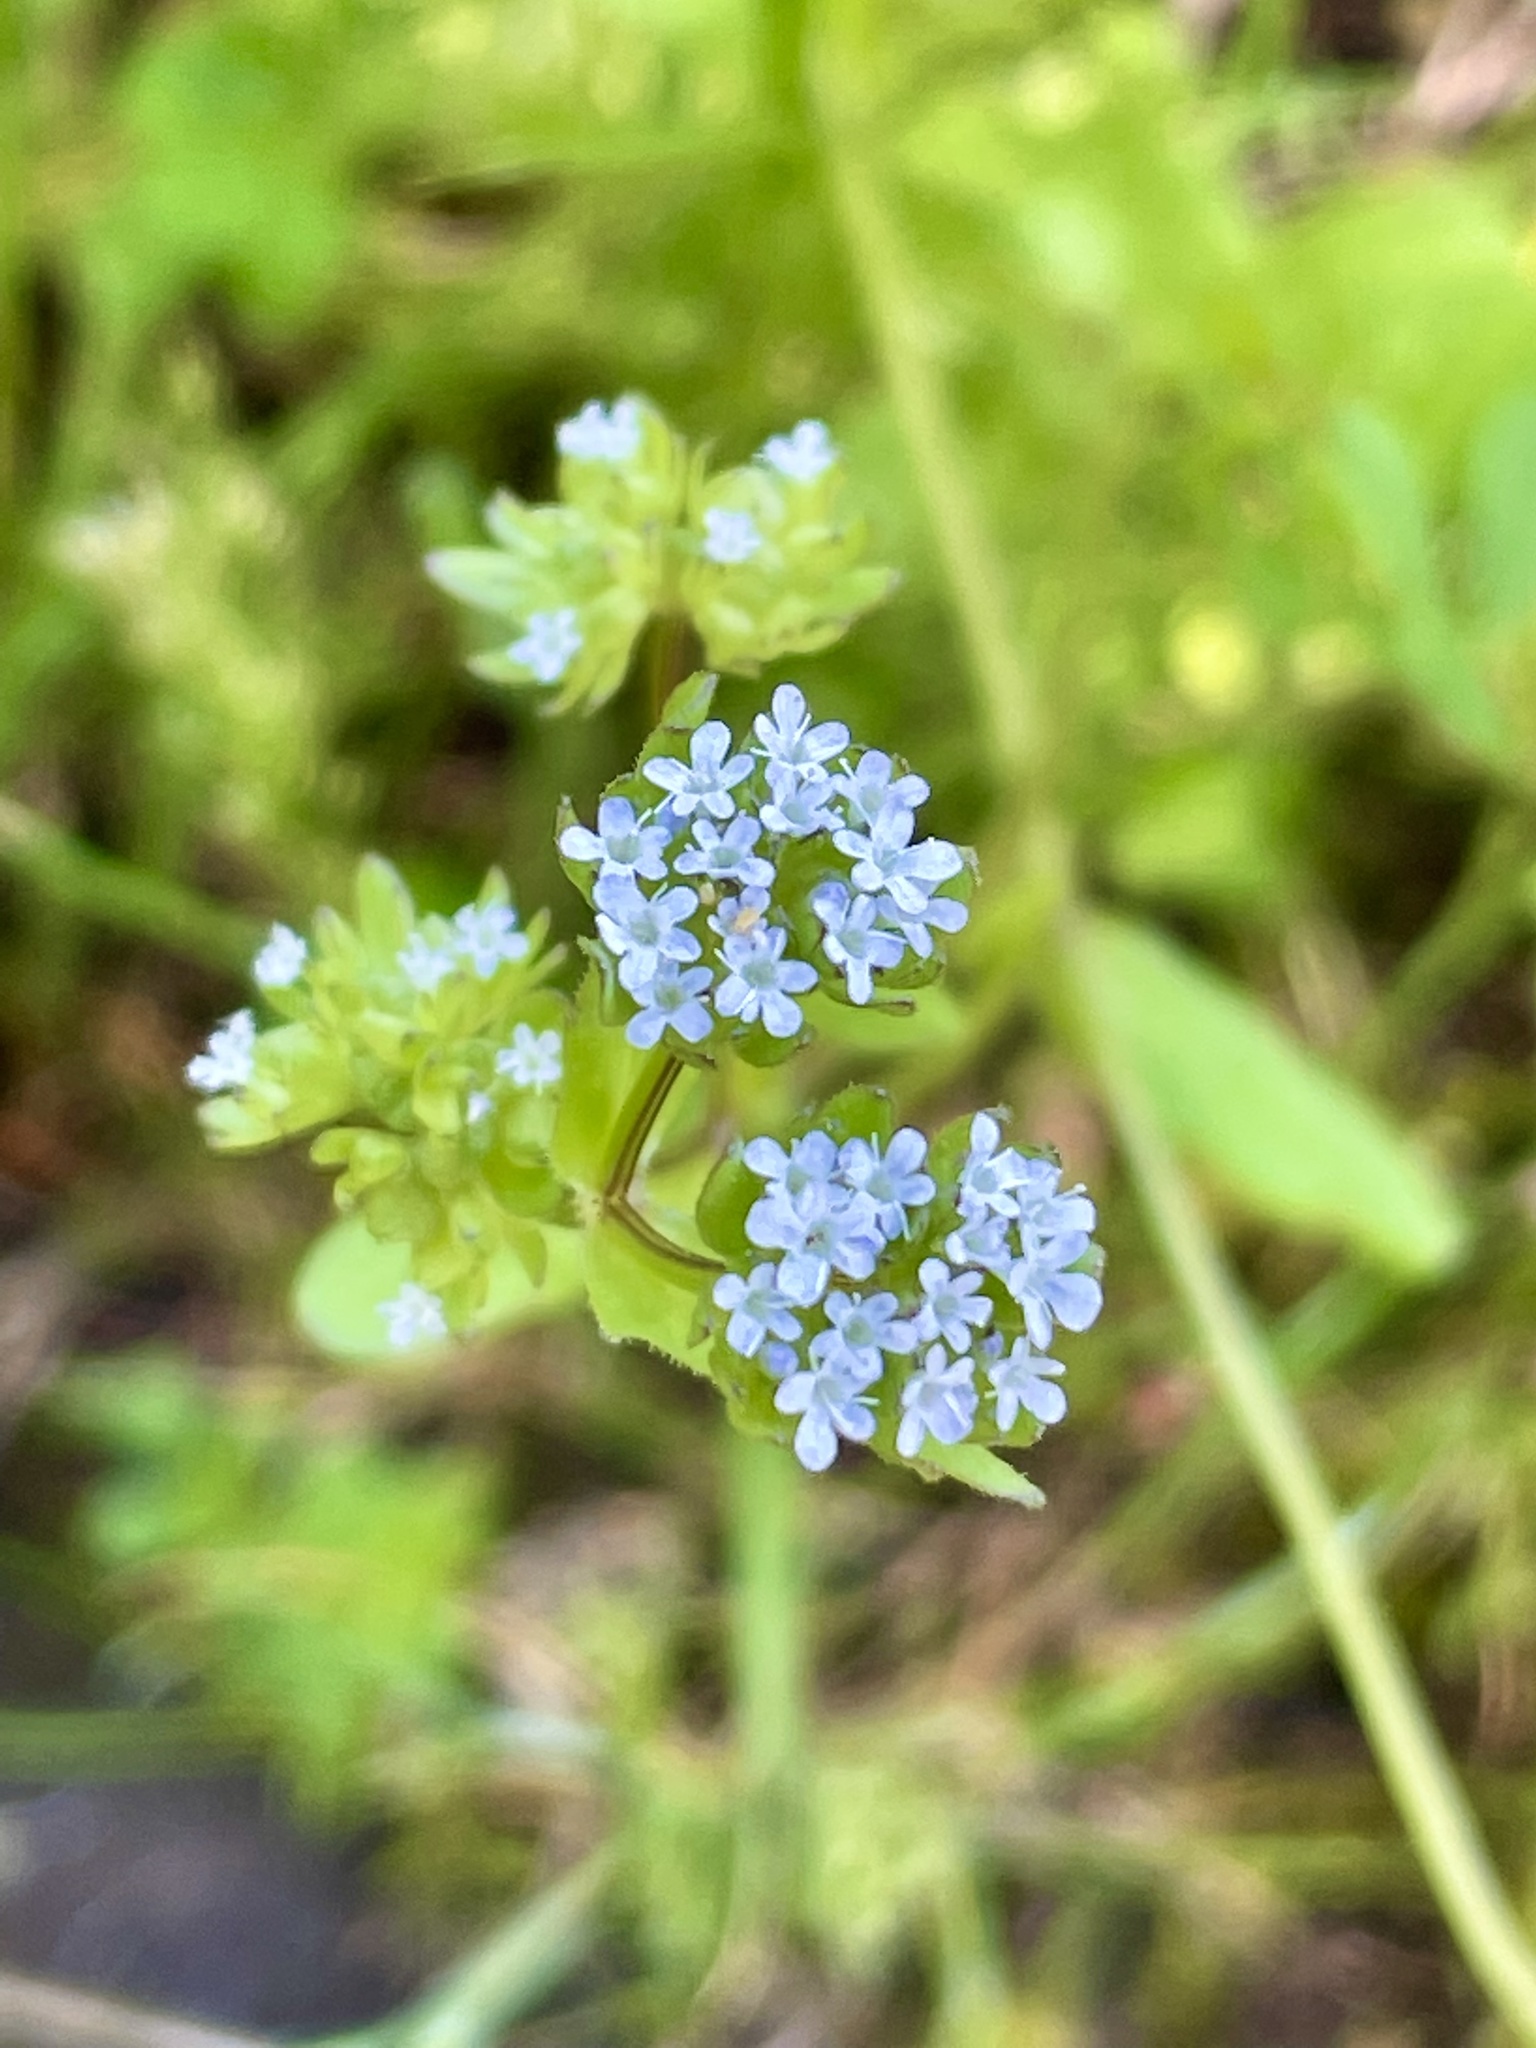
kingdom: Plantae
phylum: Tracheophyta
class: Magnoliopsida
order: Dipsacales
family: Caprifoliaceae
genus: Valerianella
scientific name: Valerianella locusta
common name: Common cornsalad
